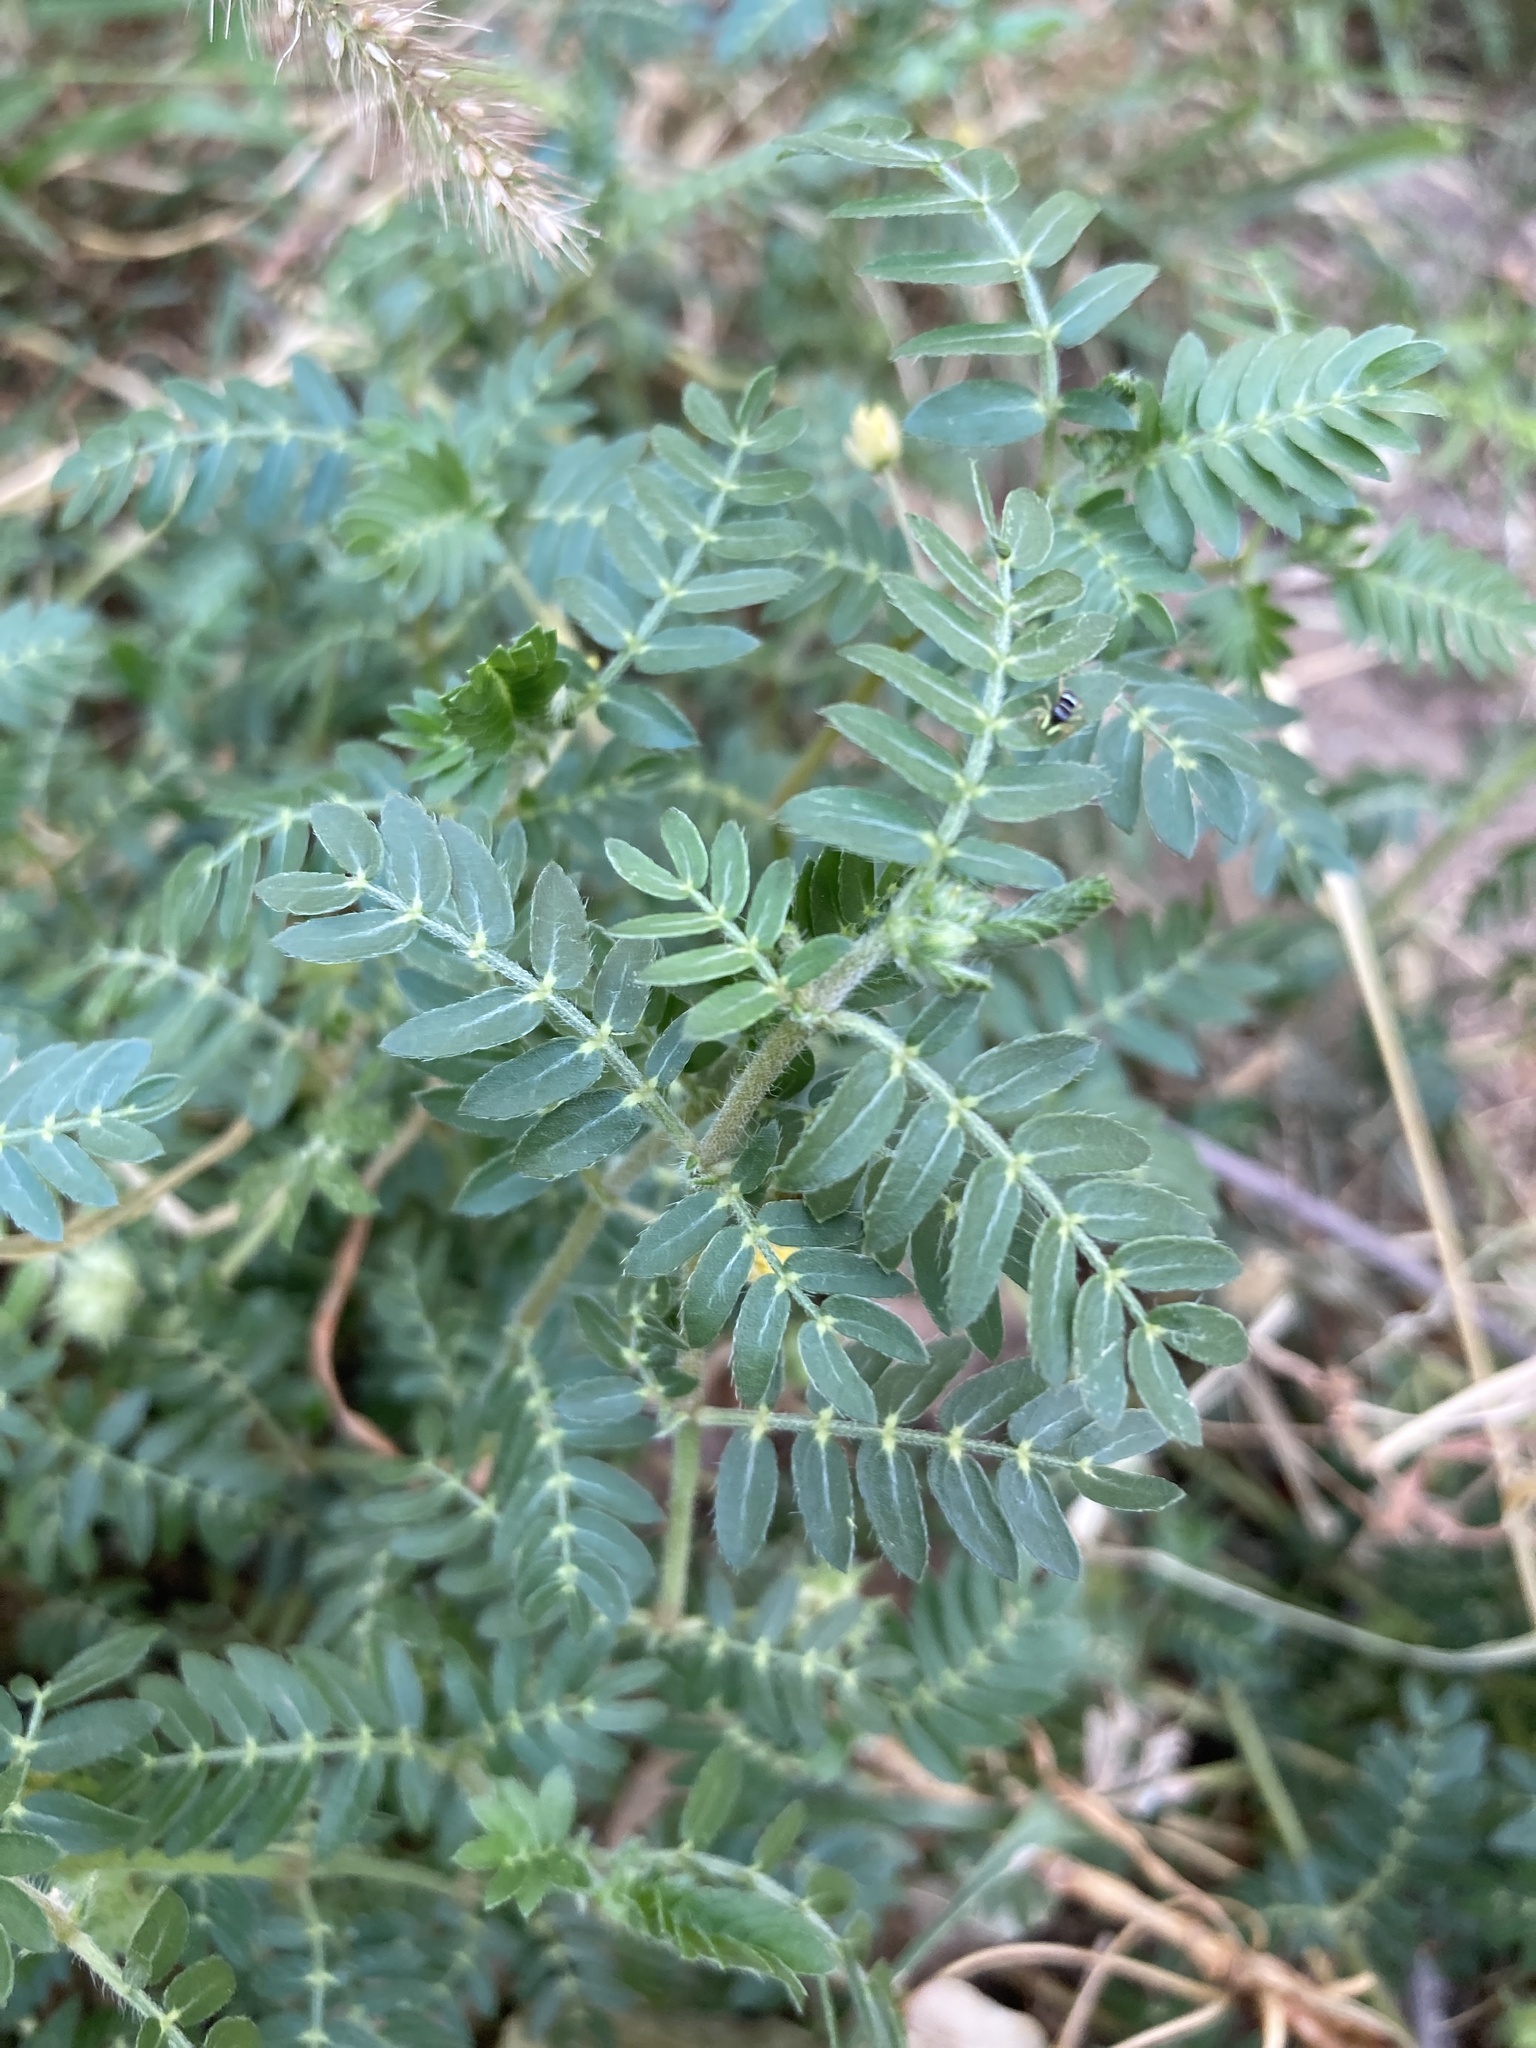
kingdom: Plantae
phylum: Tracheophyta
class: Magnoliopsida
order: Zygophyllales
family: Zygophyllaceae
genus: Tribulus
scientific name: Tribulus terrestris
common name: Puncturevine
